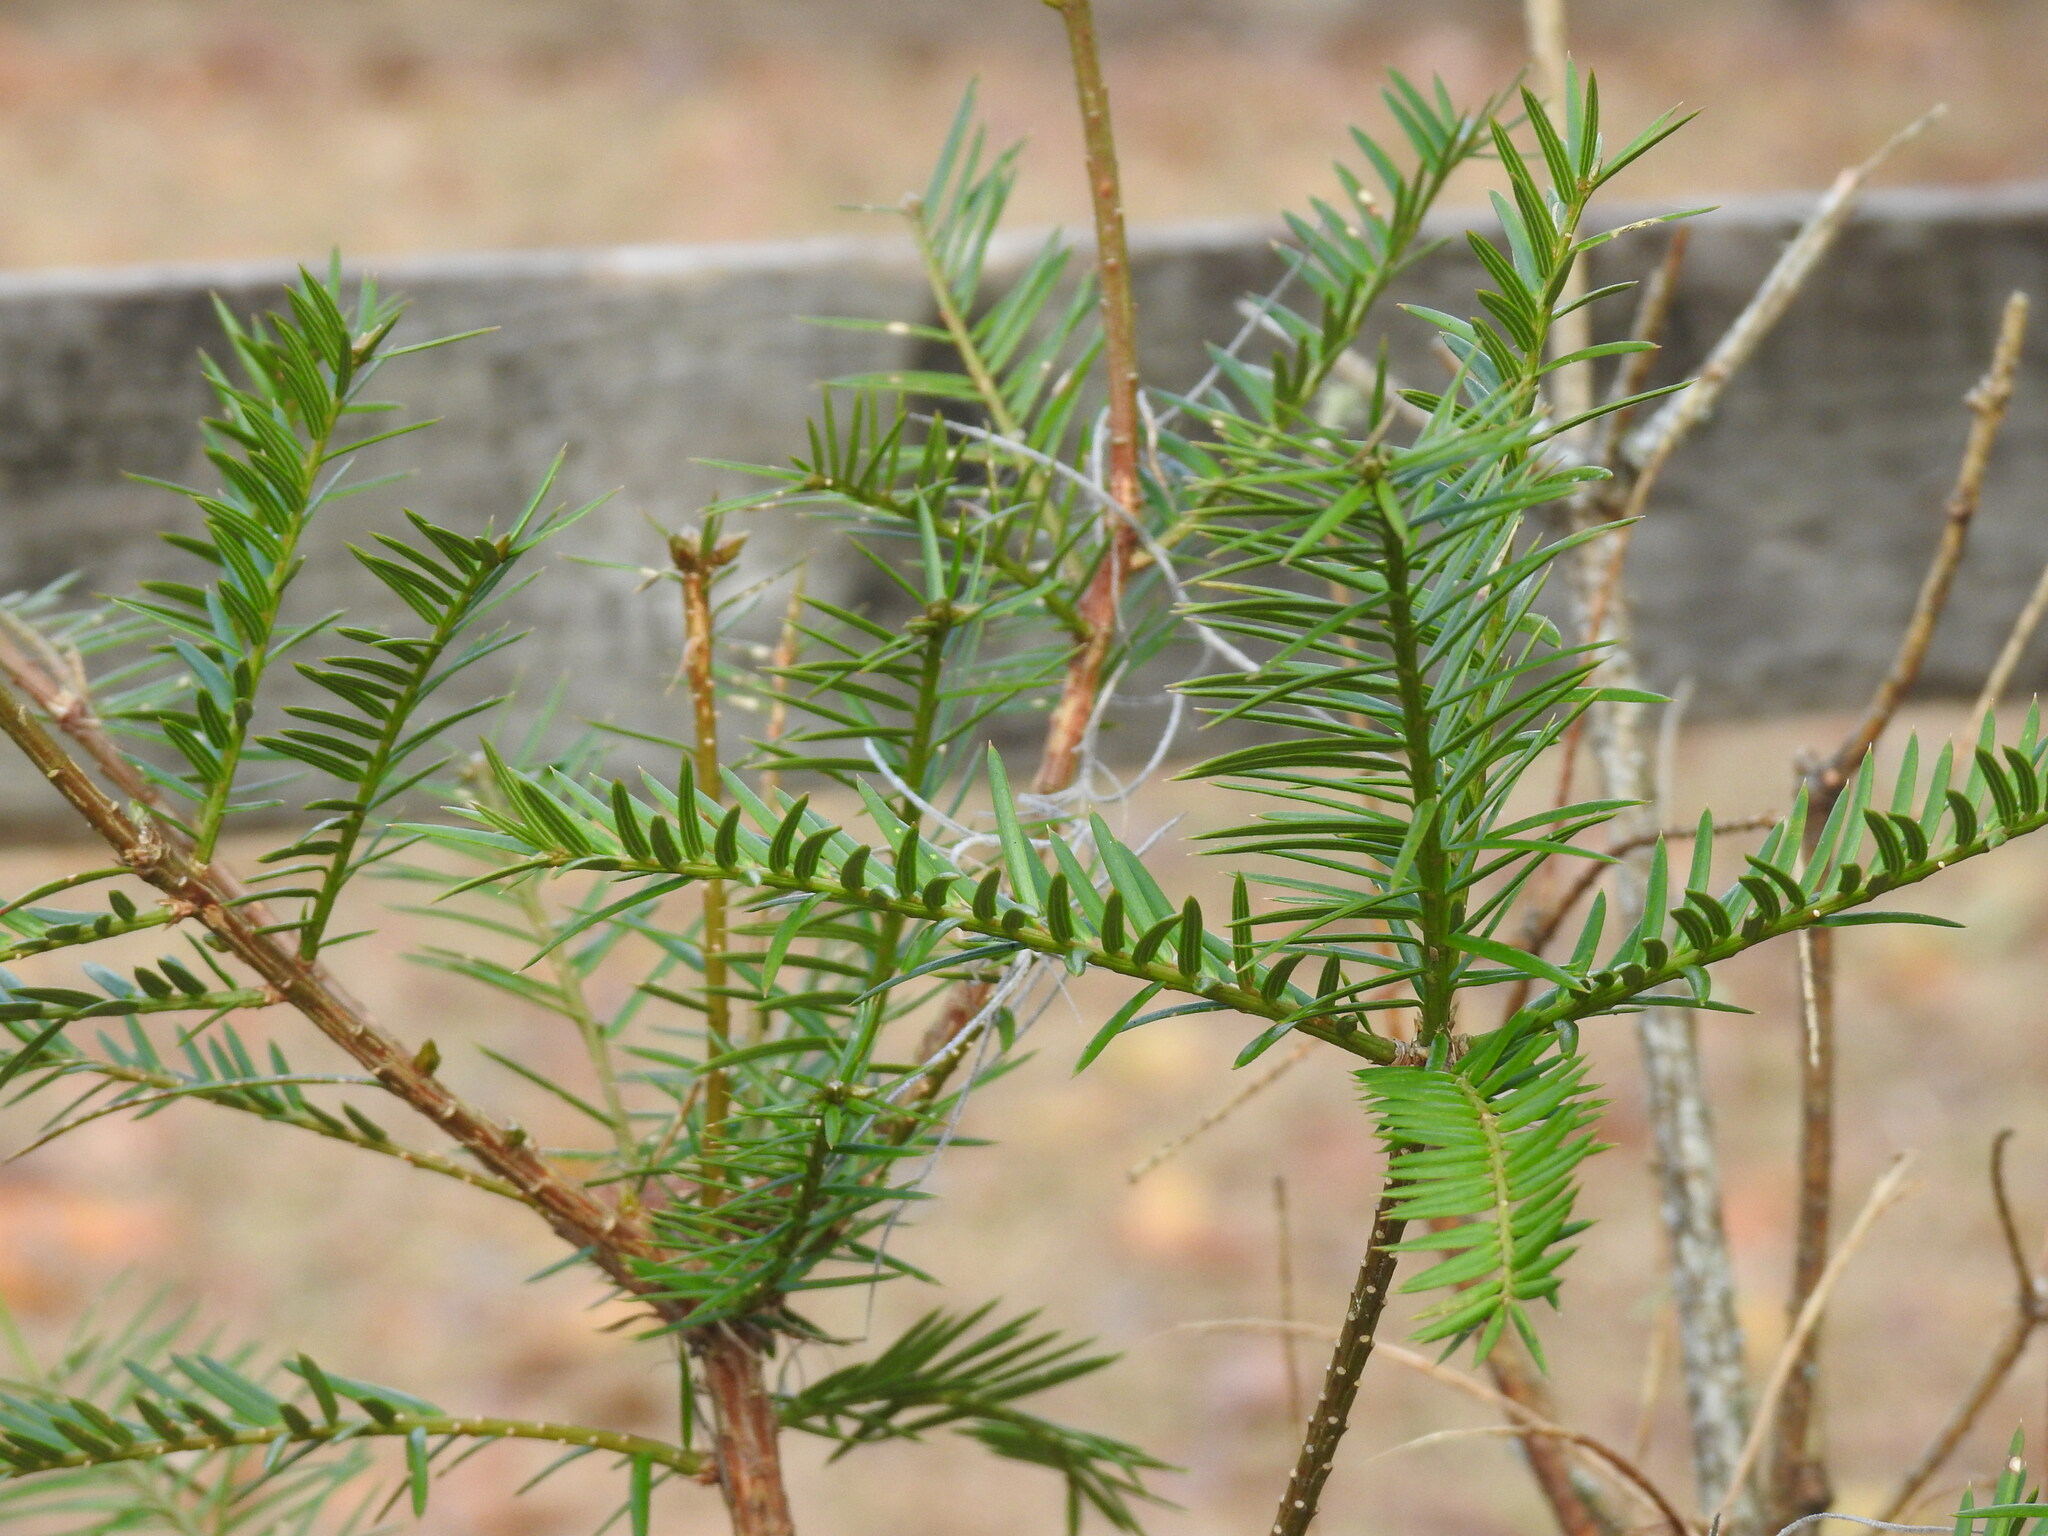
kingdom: Plantae
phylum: Tracheophyta
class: Pinopsida
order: Pinales
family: Taxaceae
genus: Torreya
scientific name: Torreya taxifolia
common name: Florida torreya
